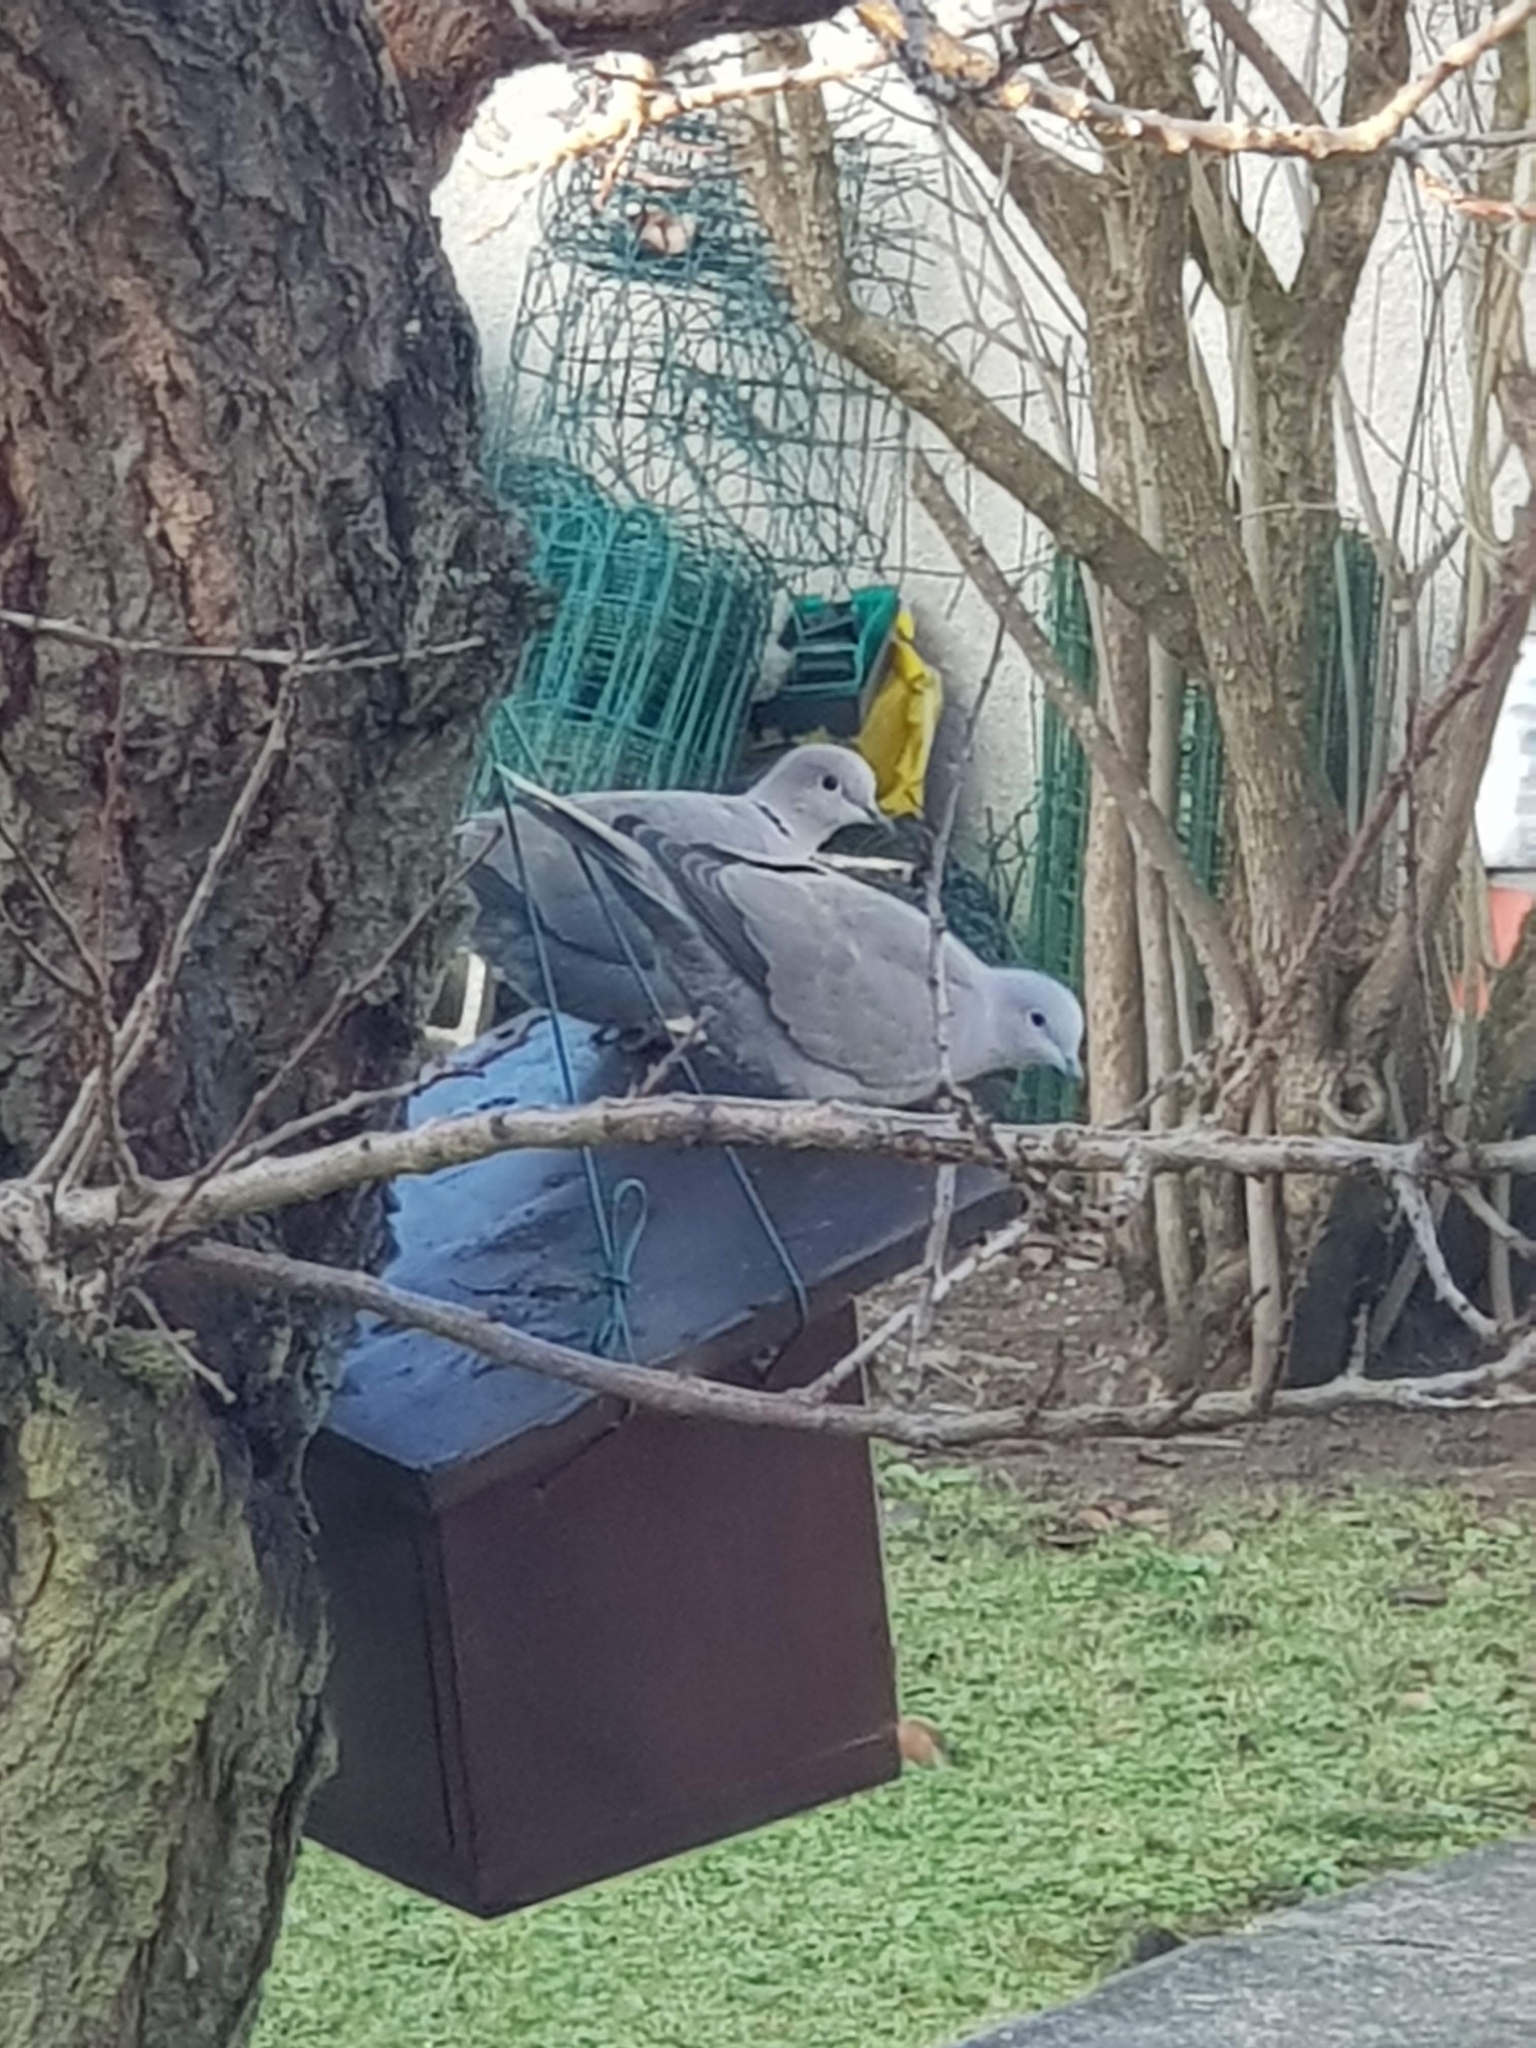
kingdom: Animalia
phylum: Chordata
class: Aves
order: Columbiformes
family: Columbidae
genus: Streptopelia
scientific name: Streptopelia decaocto
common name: Eurasian collared dove
